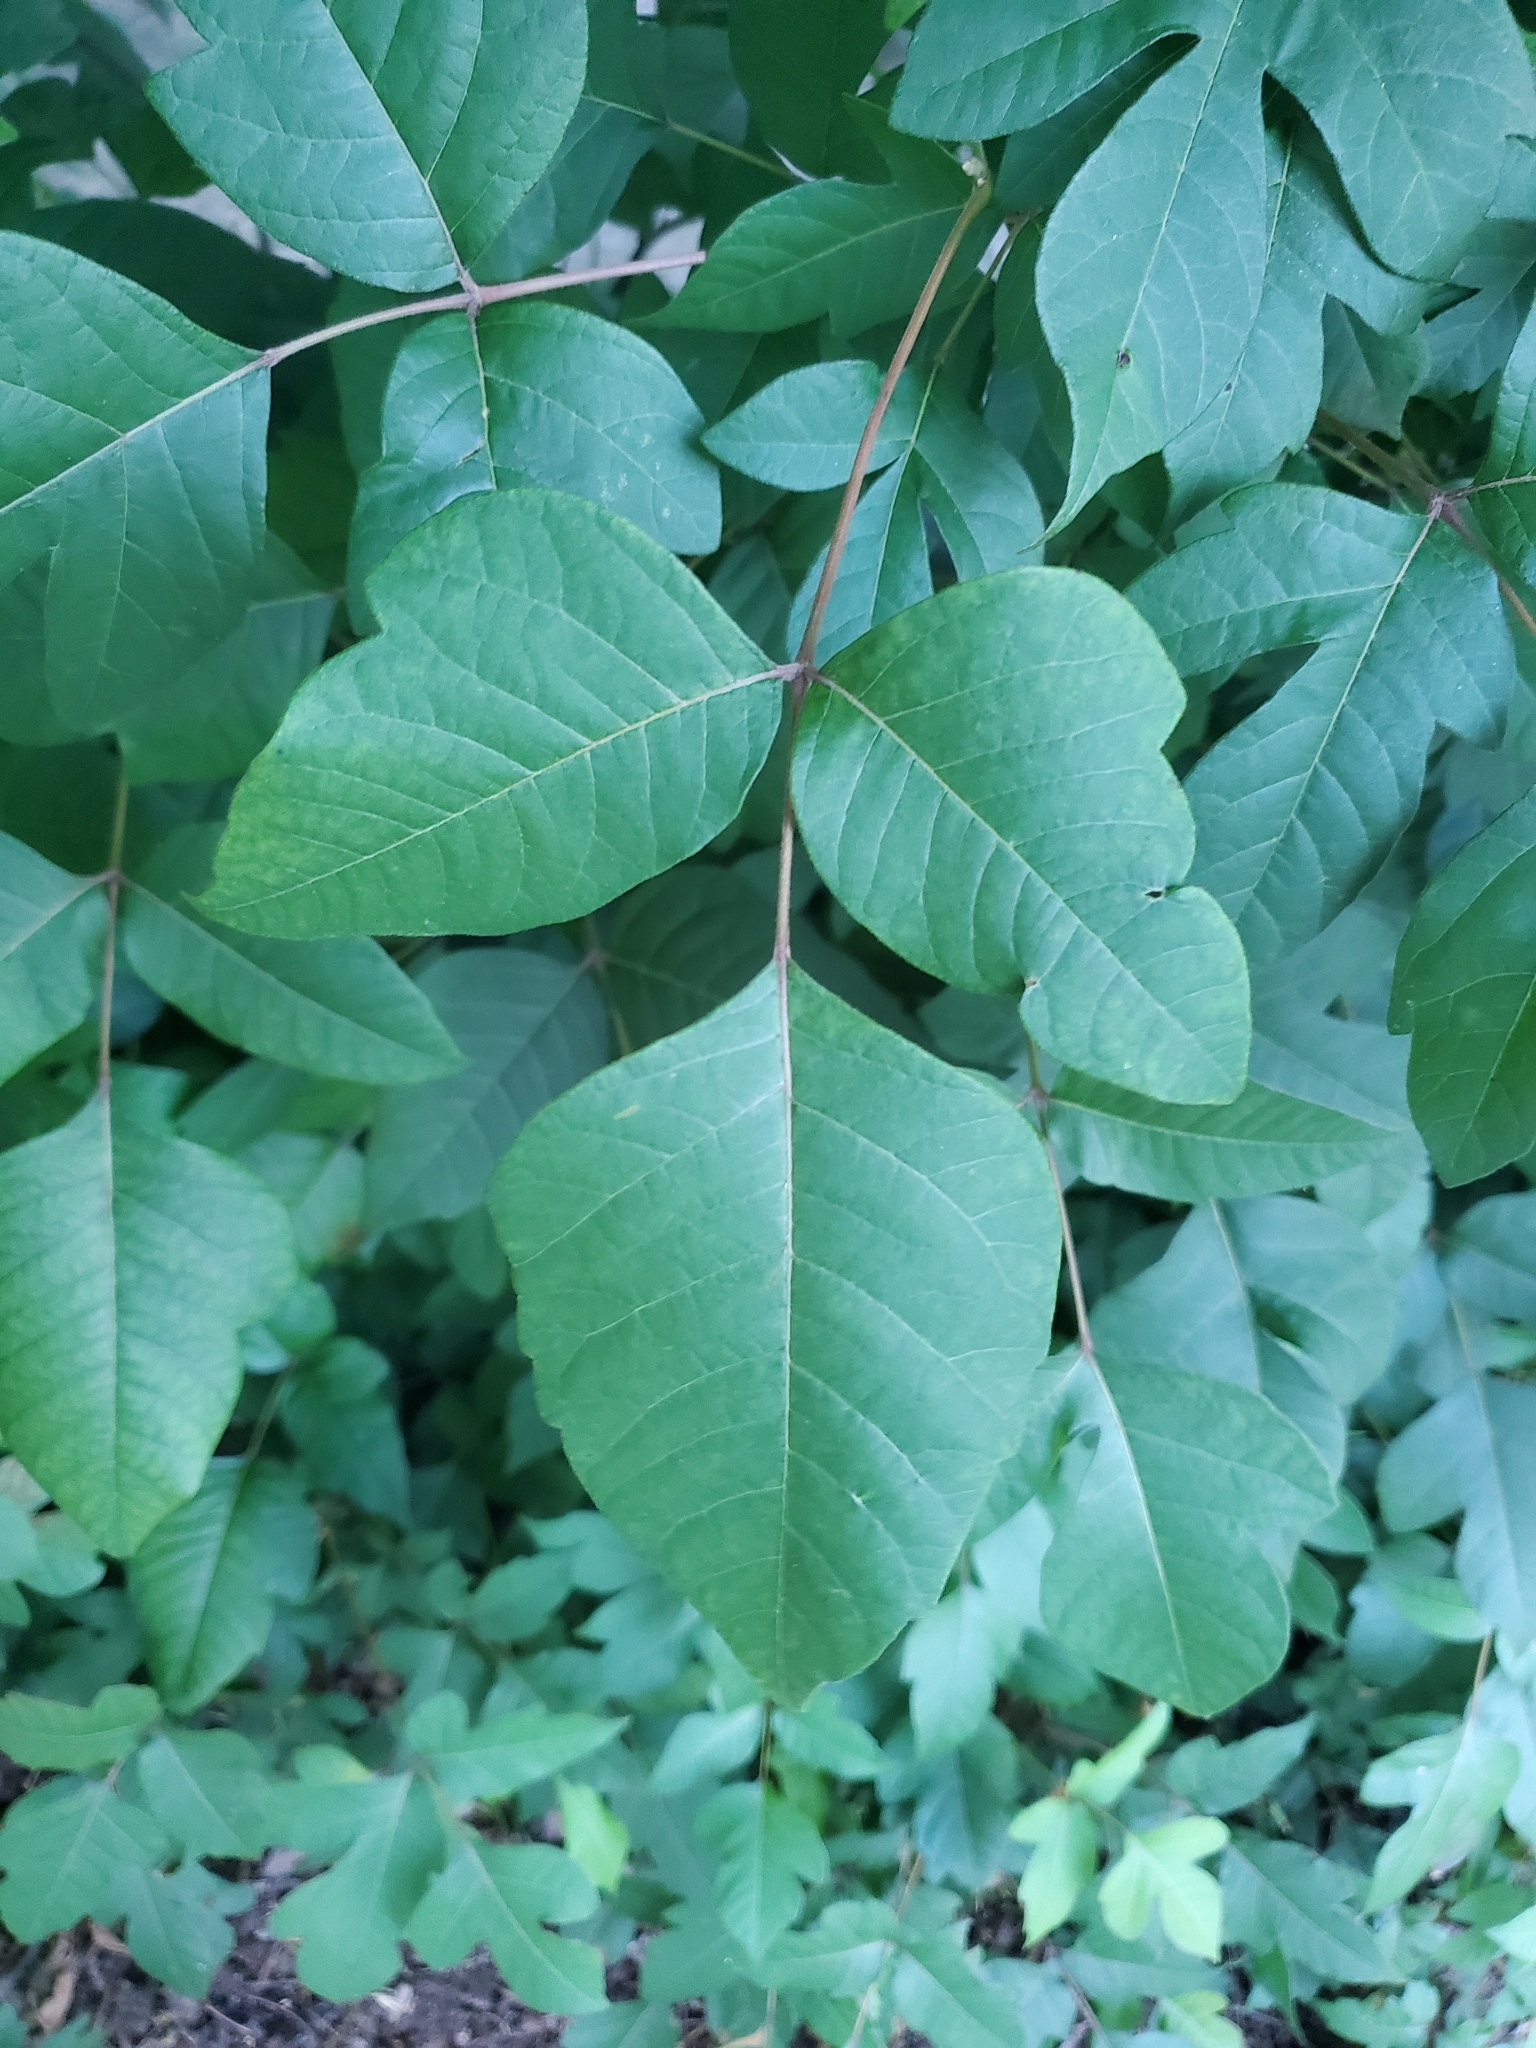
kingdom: Plantae
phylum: Tracheophyta
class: Magnoliopsida
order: Sapindales
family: Anacardiaceae
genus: Toxicodendron
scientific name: Toxicodendron radicans
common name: Poison ivy
